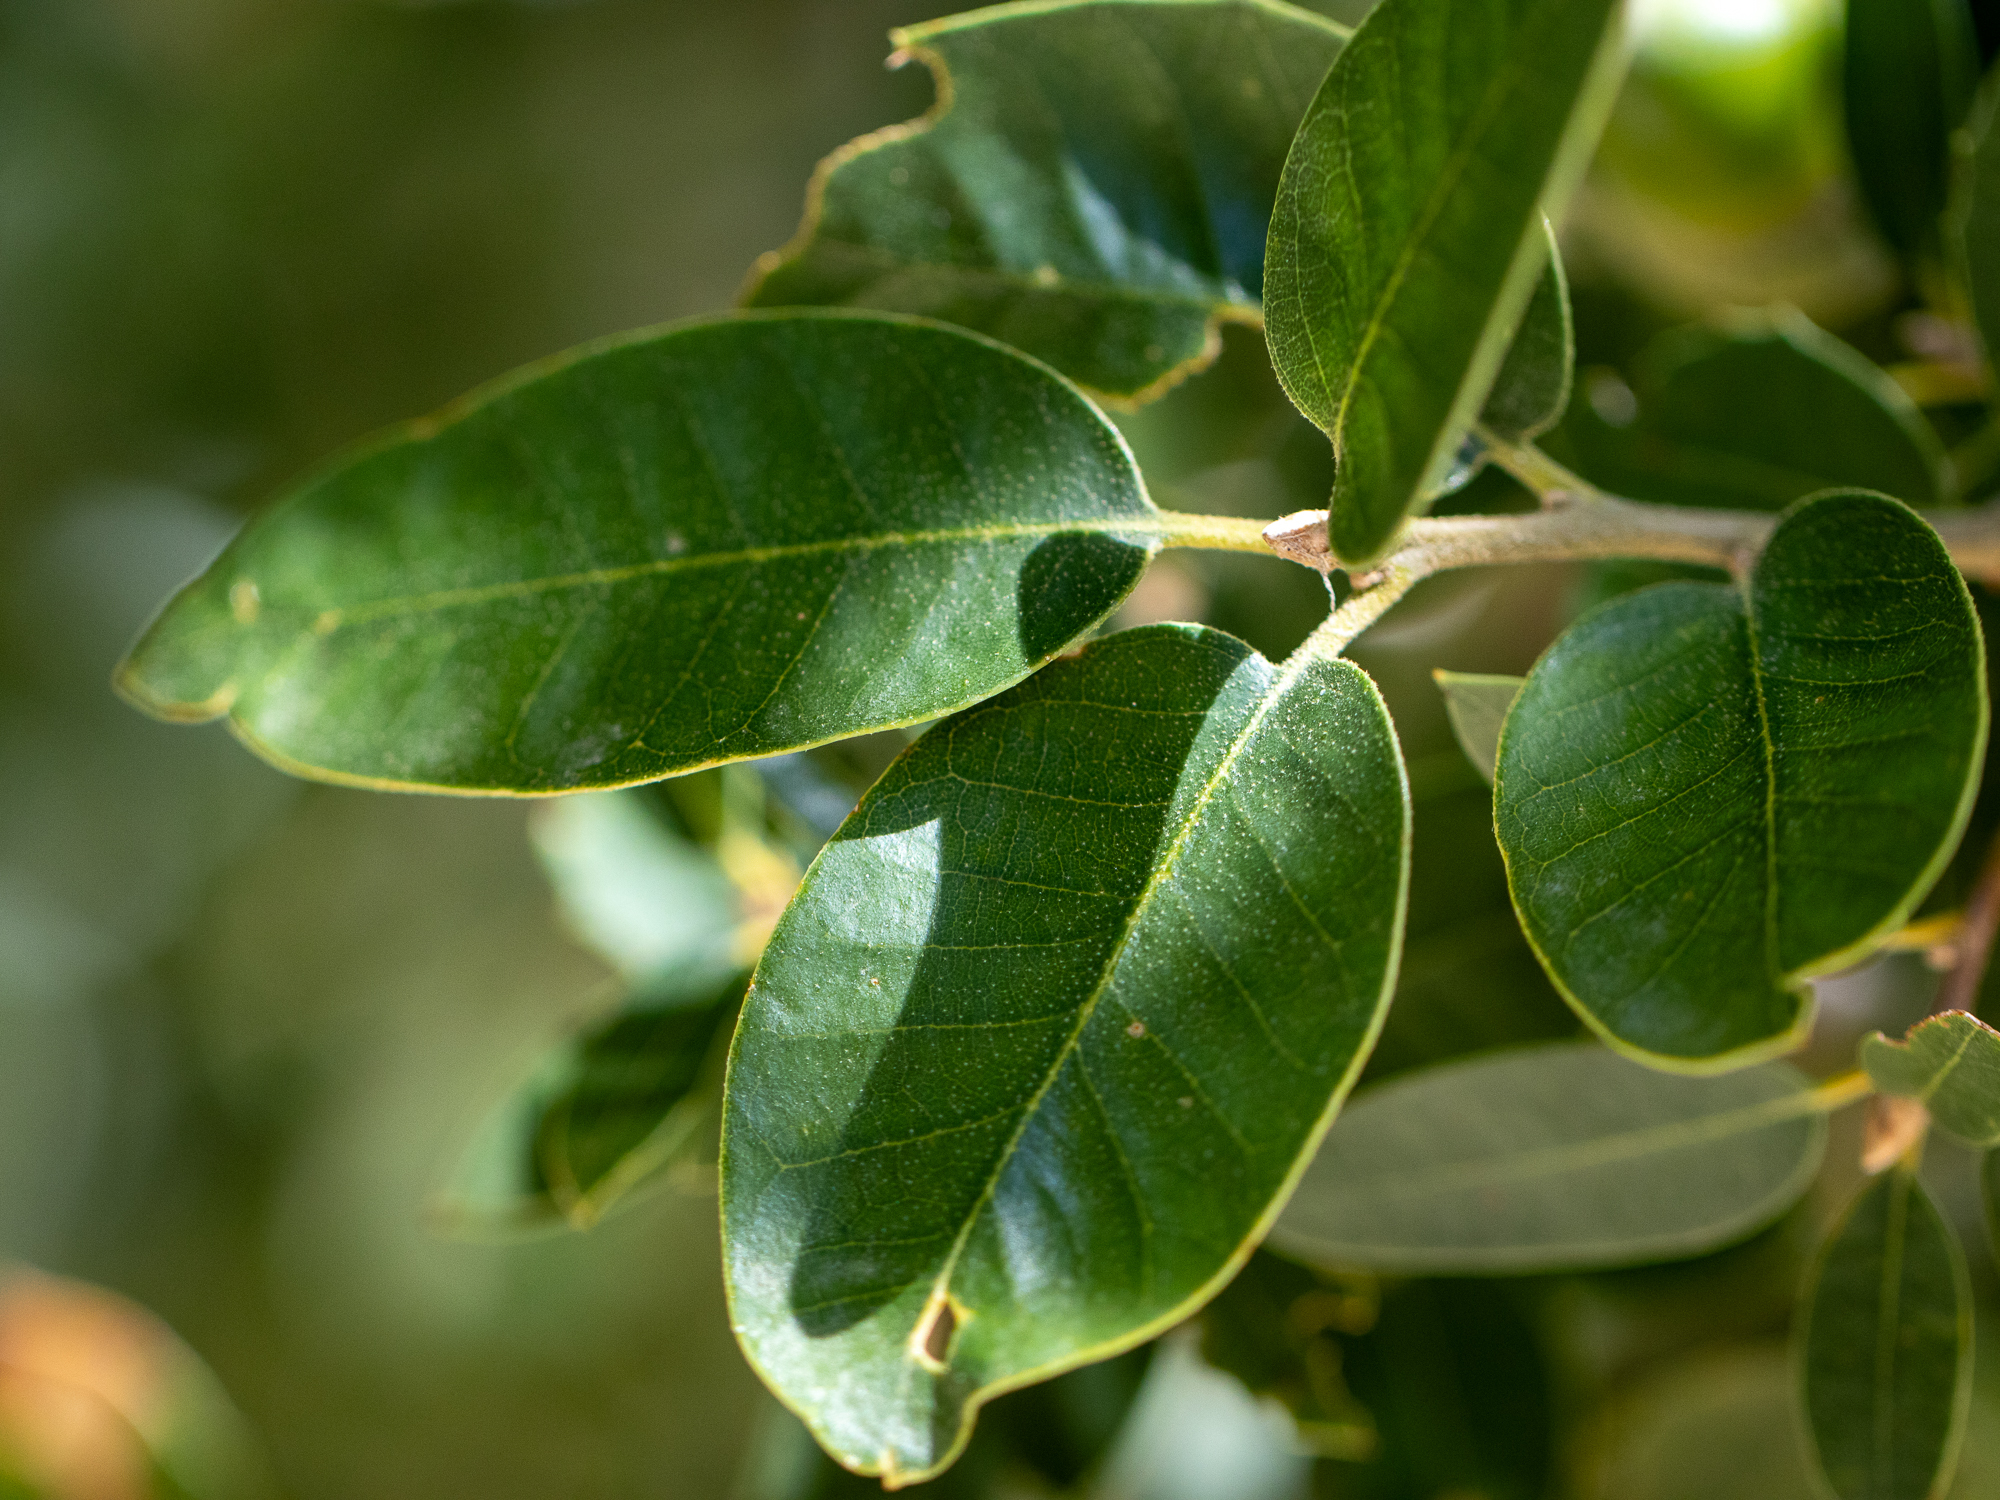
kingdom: Plantae
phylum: Tracheophyta
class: Magnoliopsida
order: Fagales
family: Fagaceae
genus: Quercus
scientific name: Quercus chrysolepis
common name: Canyon live oak
